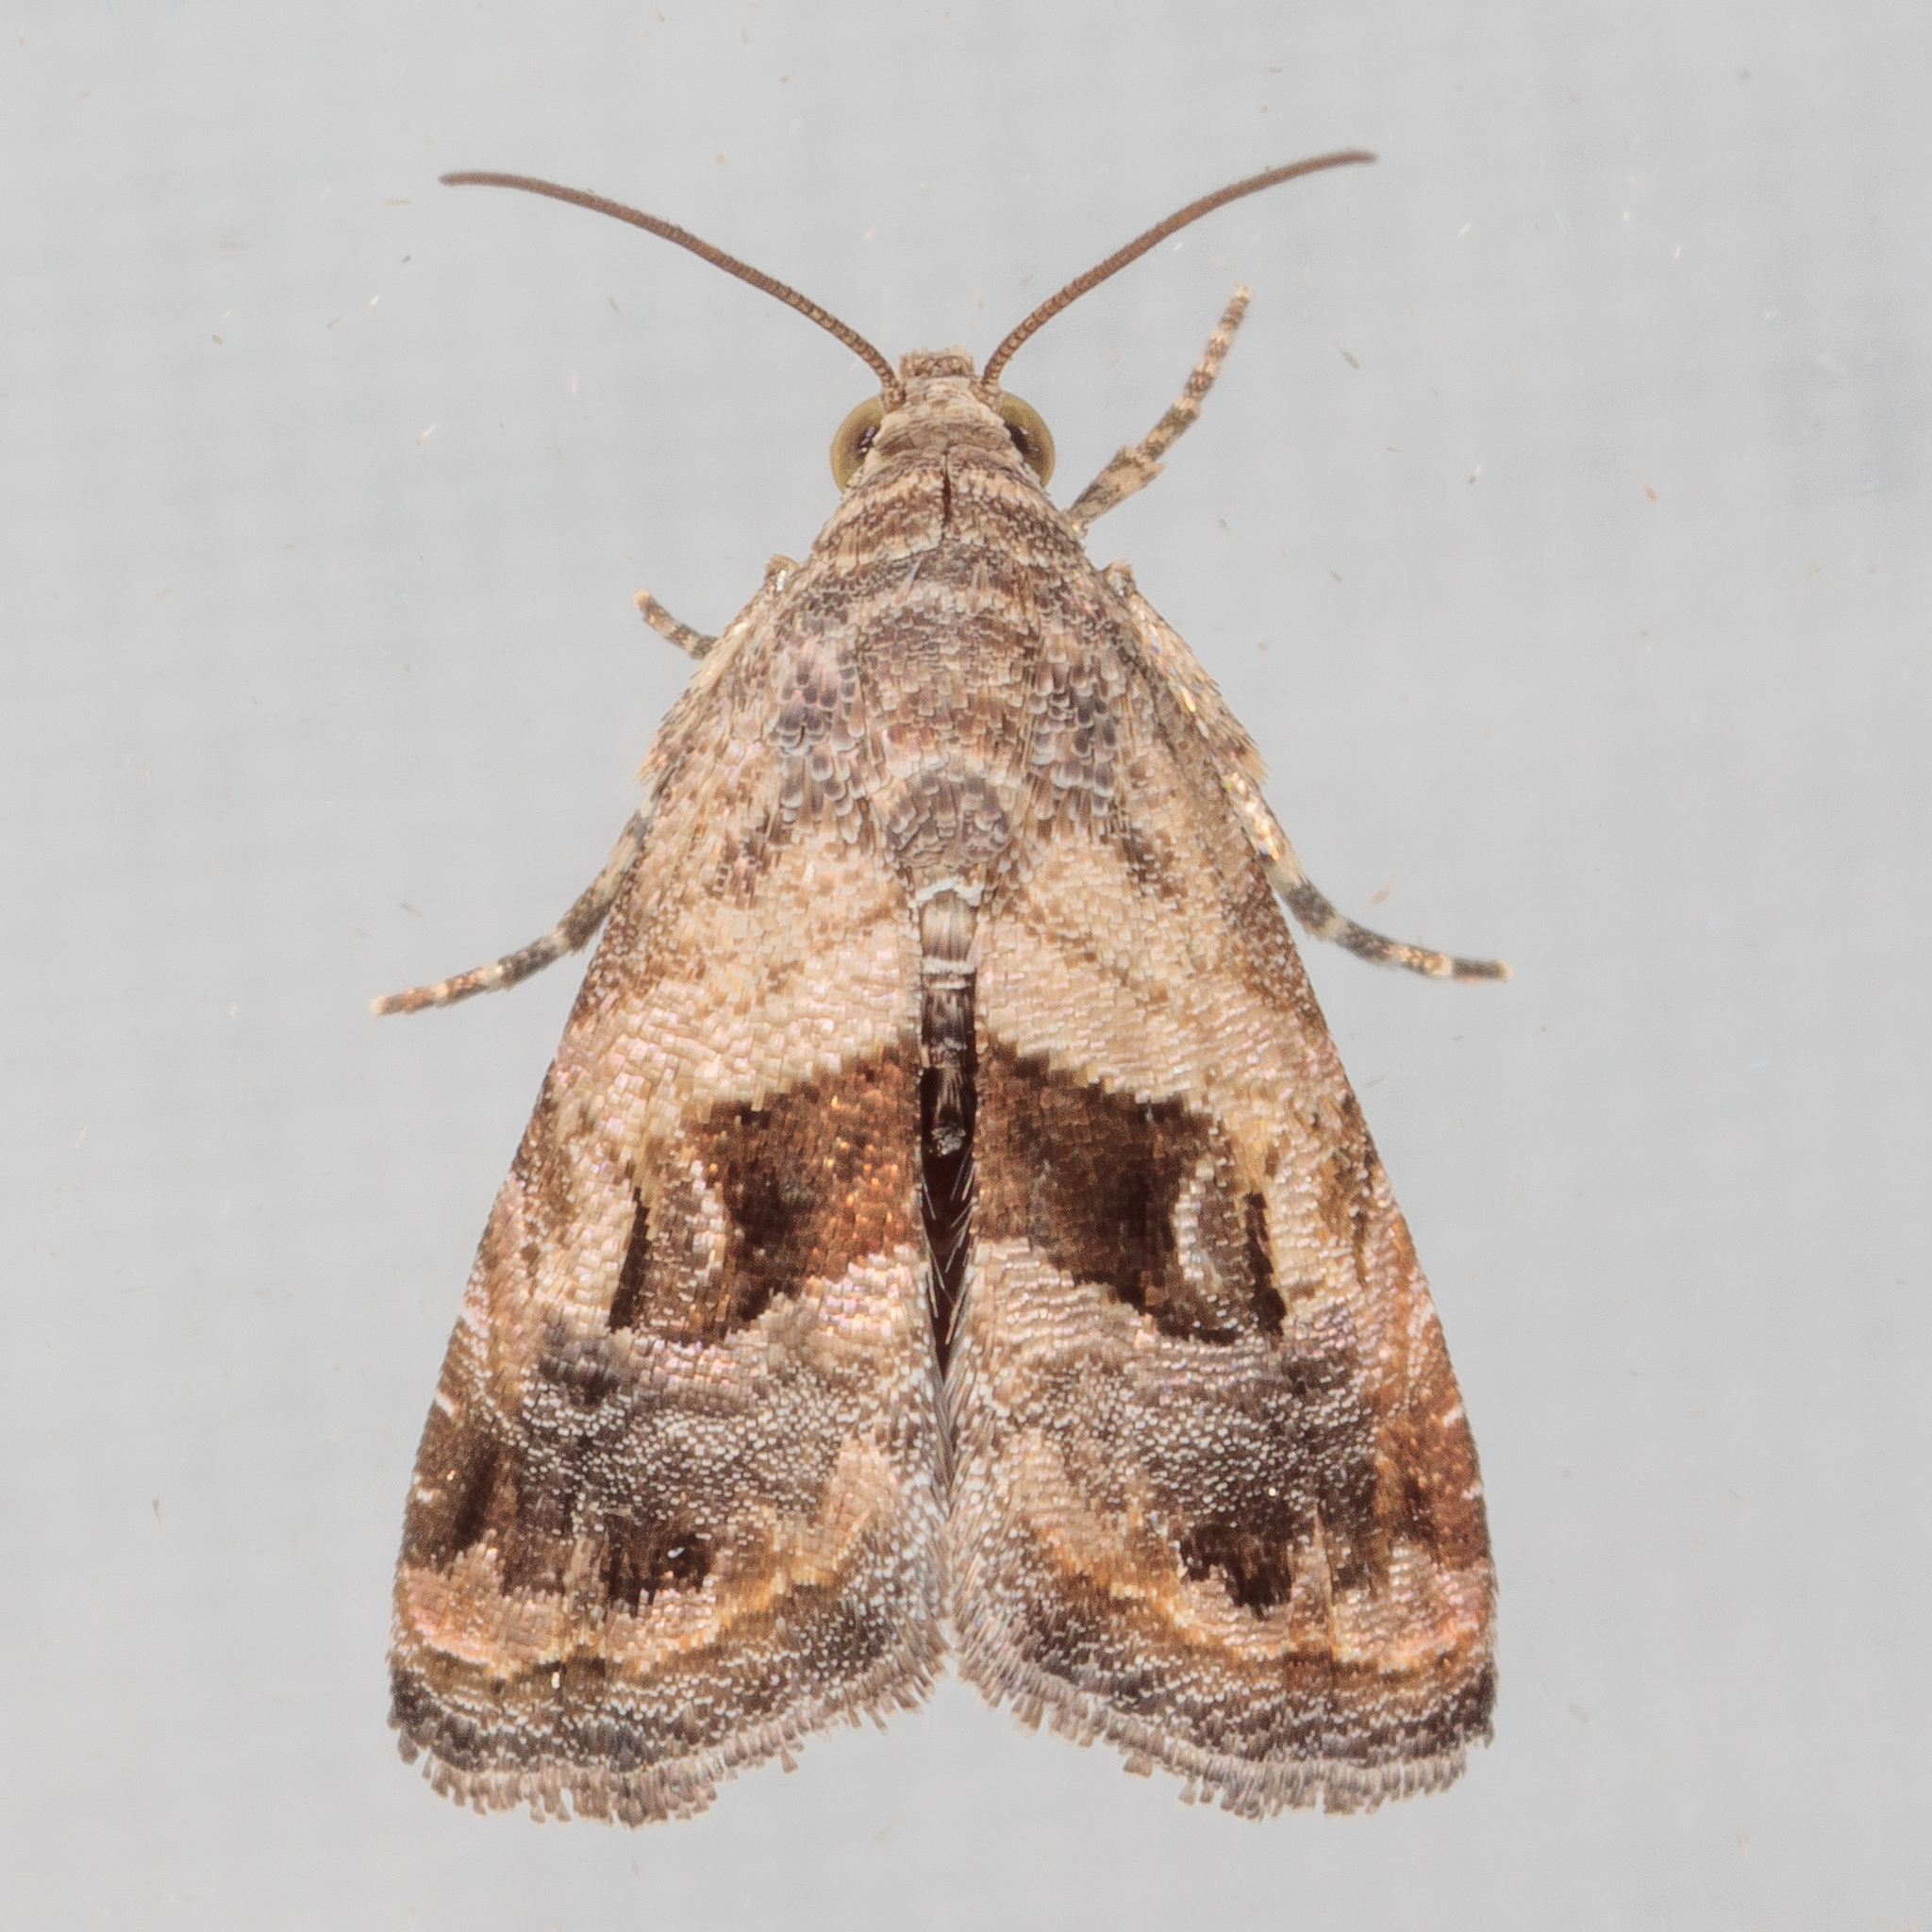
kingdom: Animalia
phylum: Arthropoda
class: Insecta
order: Lepidoptera
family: Noctuidae
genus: Tripudia
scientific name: Tripudia quadrifera
